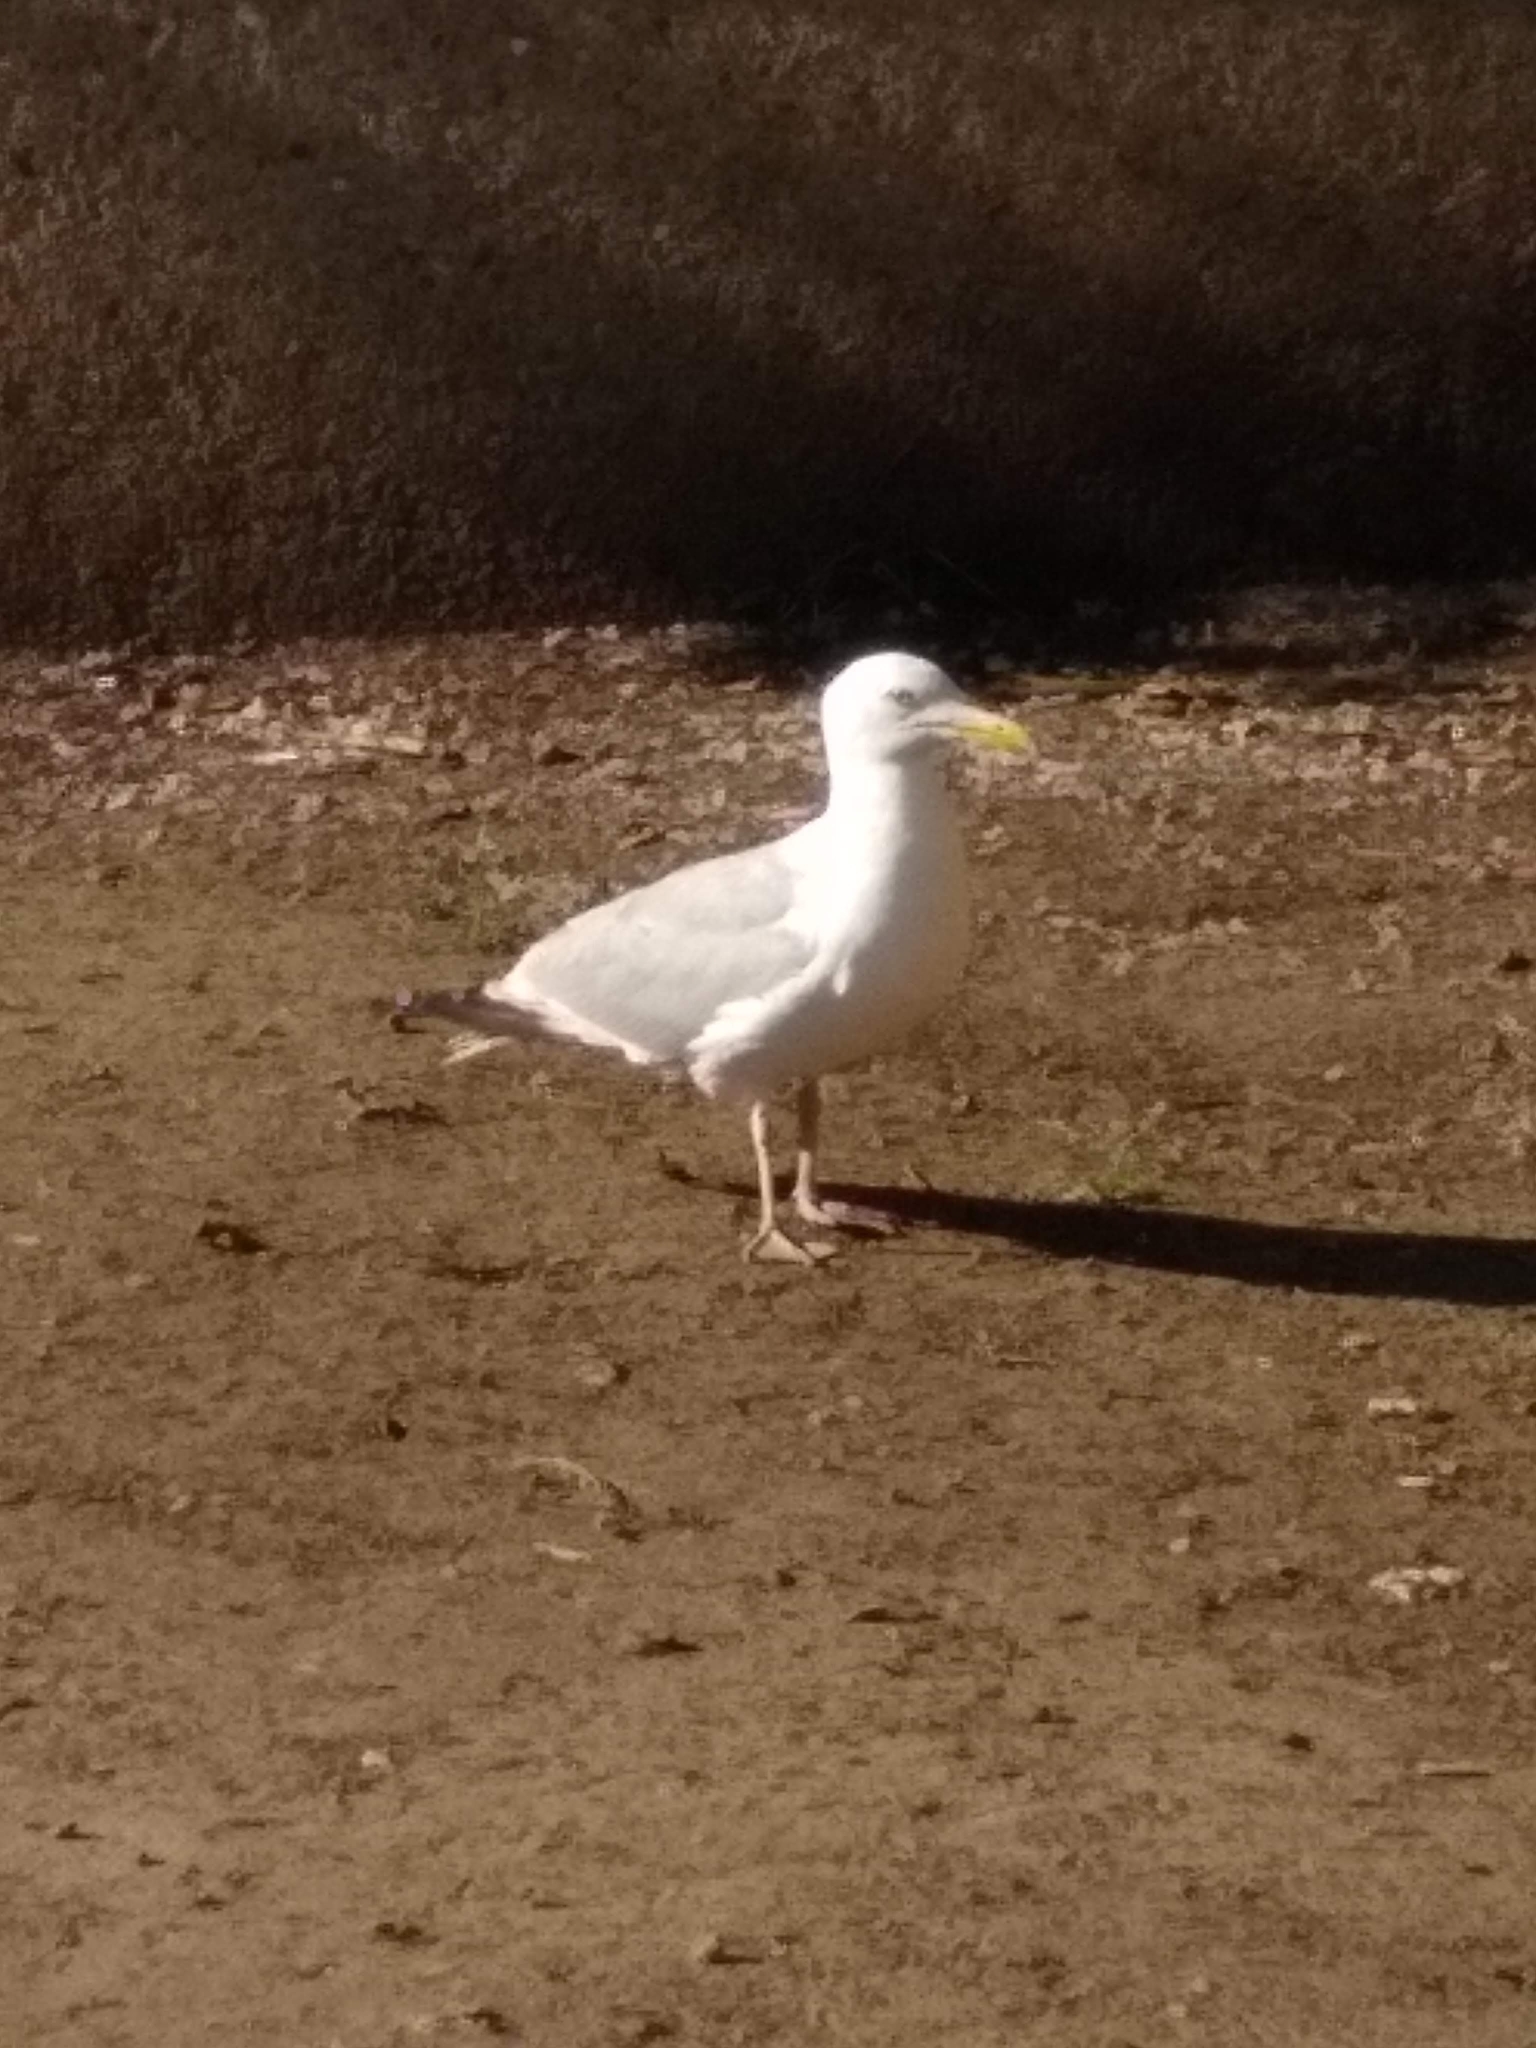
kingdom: Animalia
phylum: Chordata
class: Aves
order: Charadriiformes
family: Laridae
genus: Larus
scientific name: Larus argentatus
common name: Herring gull
